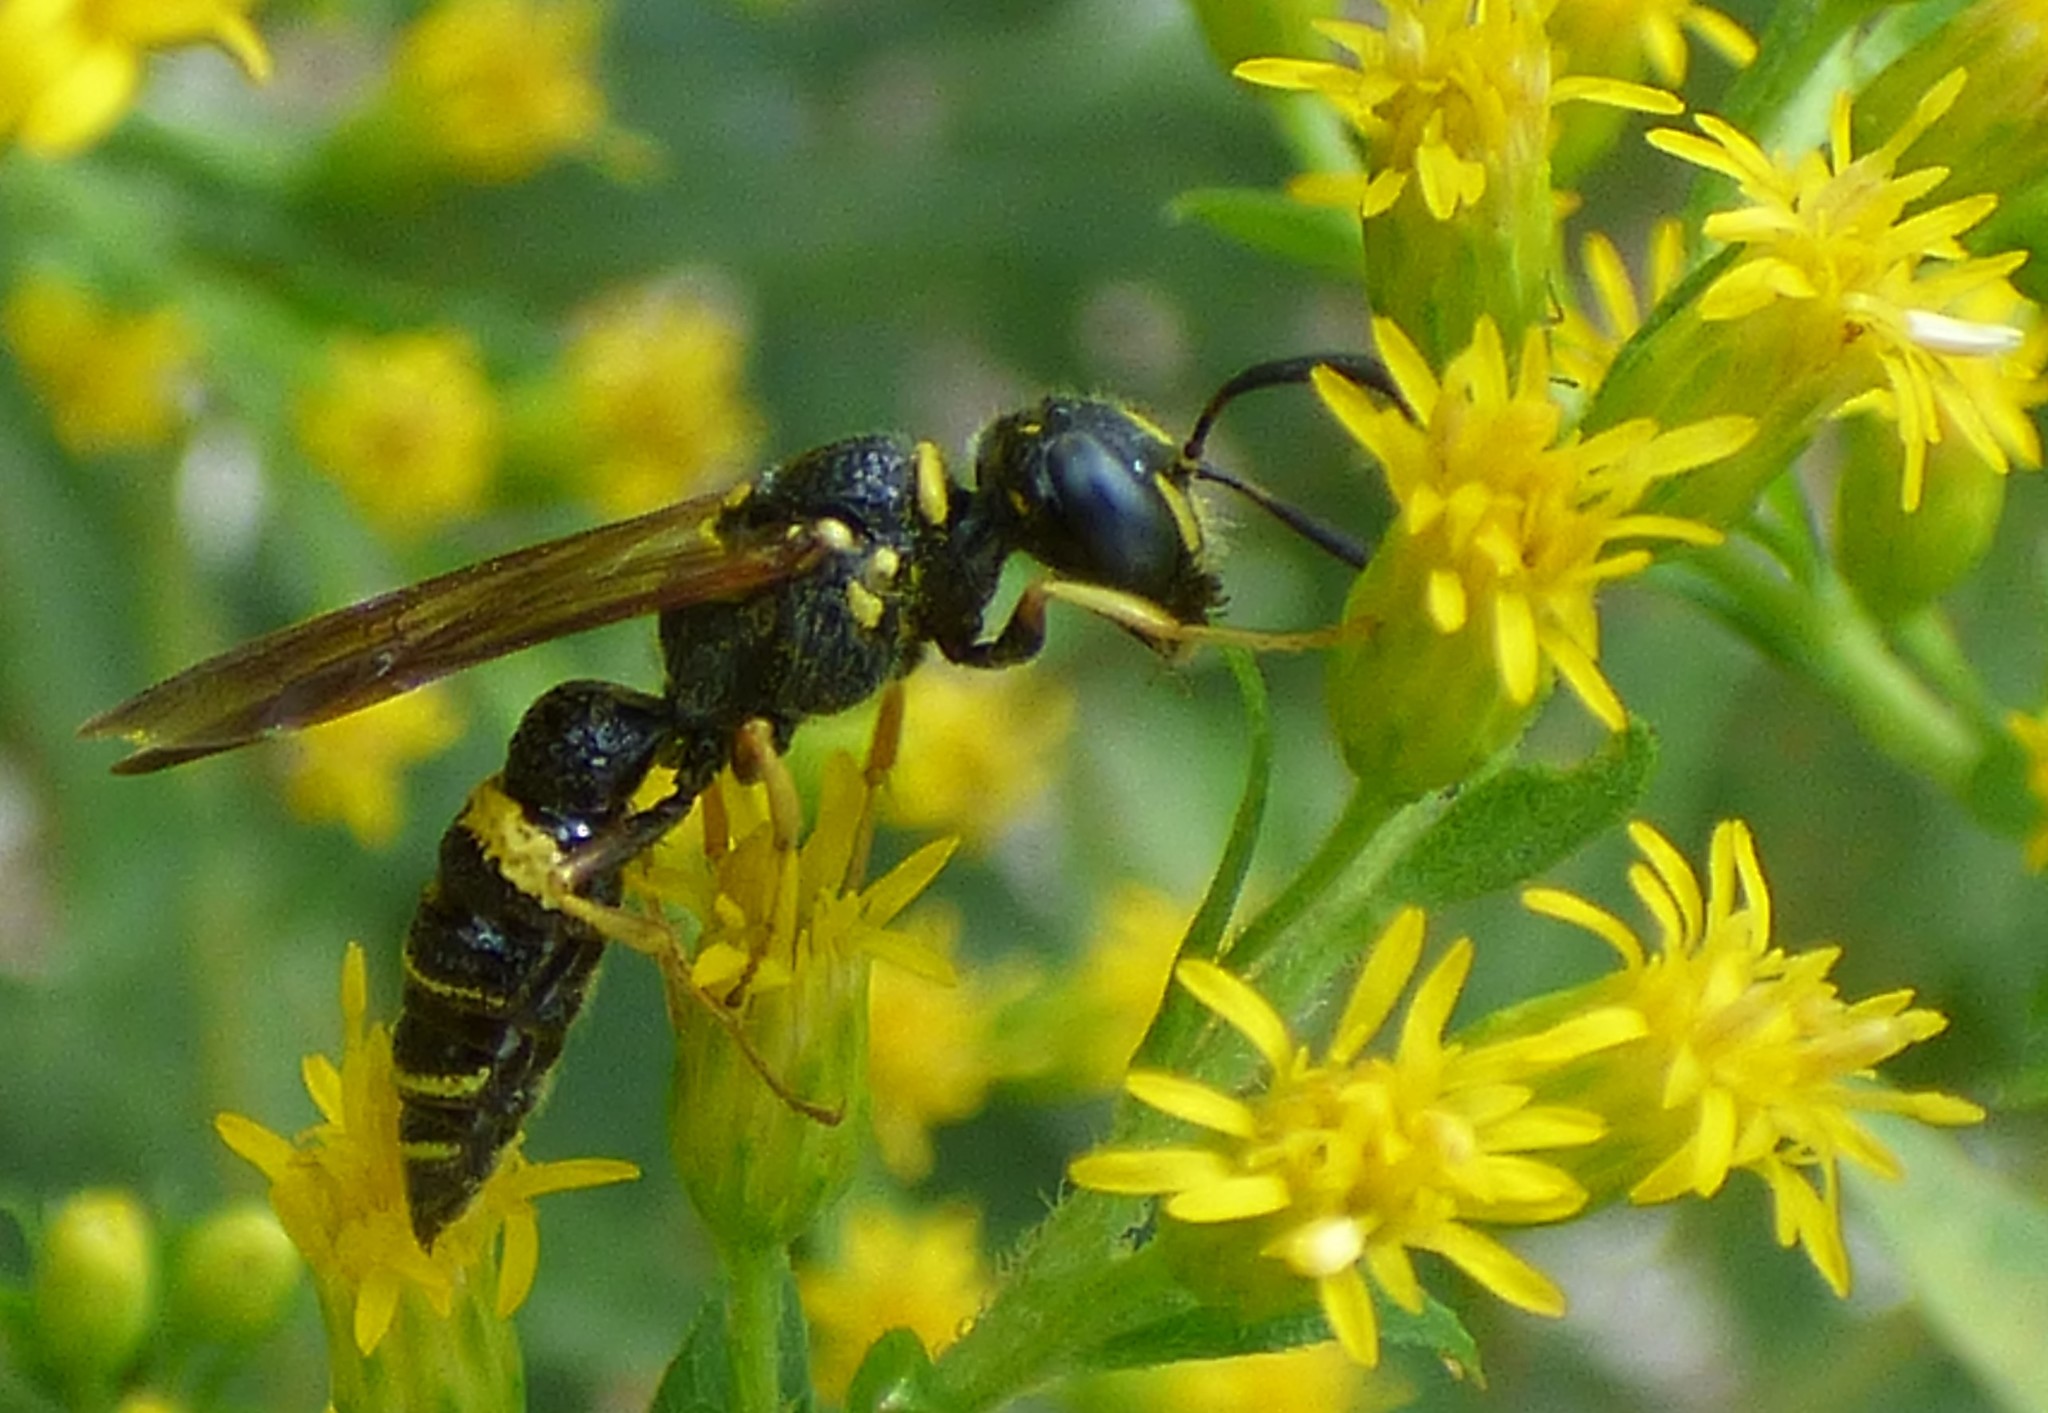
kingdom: Animalia
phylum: Arthropoda
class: Insecta
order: Hymenoptera
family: Crabronidae
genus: Philanthus
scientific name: Philanthus gibbosus
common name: Humped beewolf
